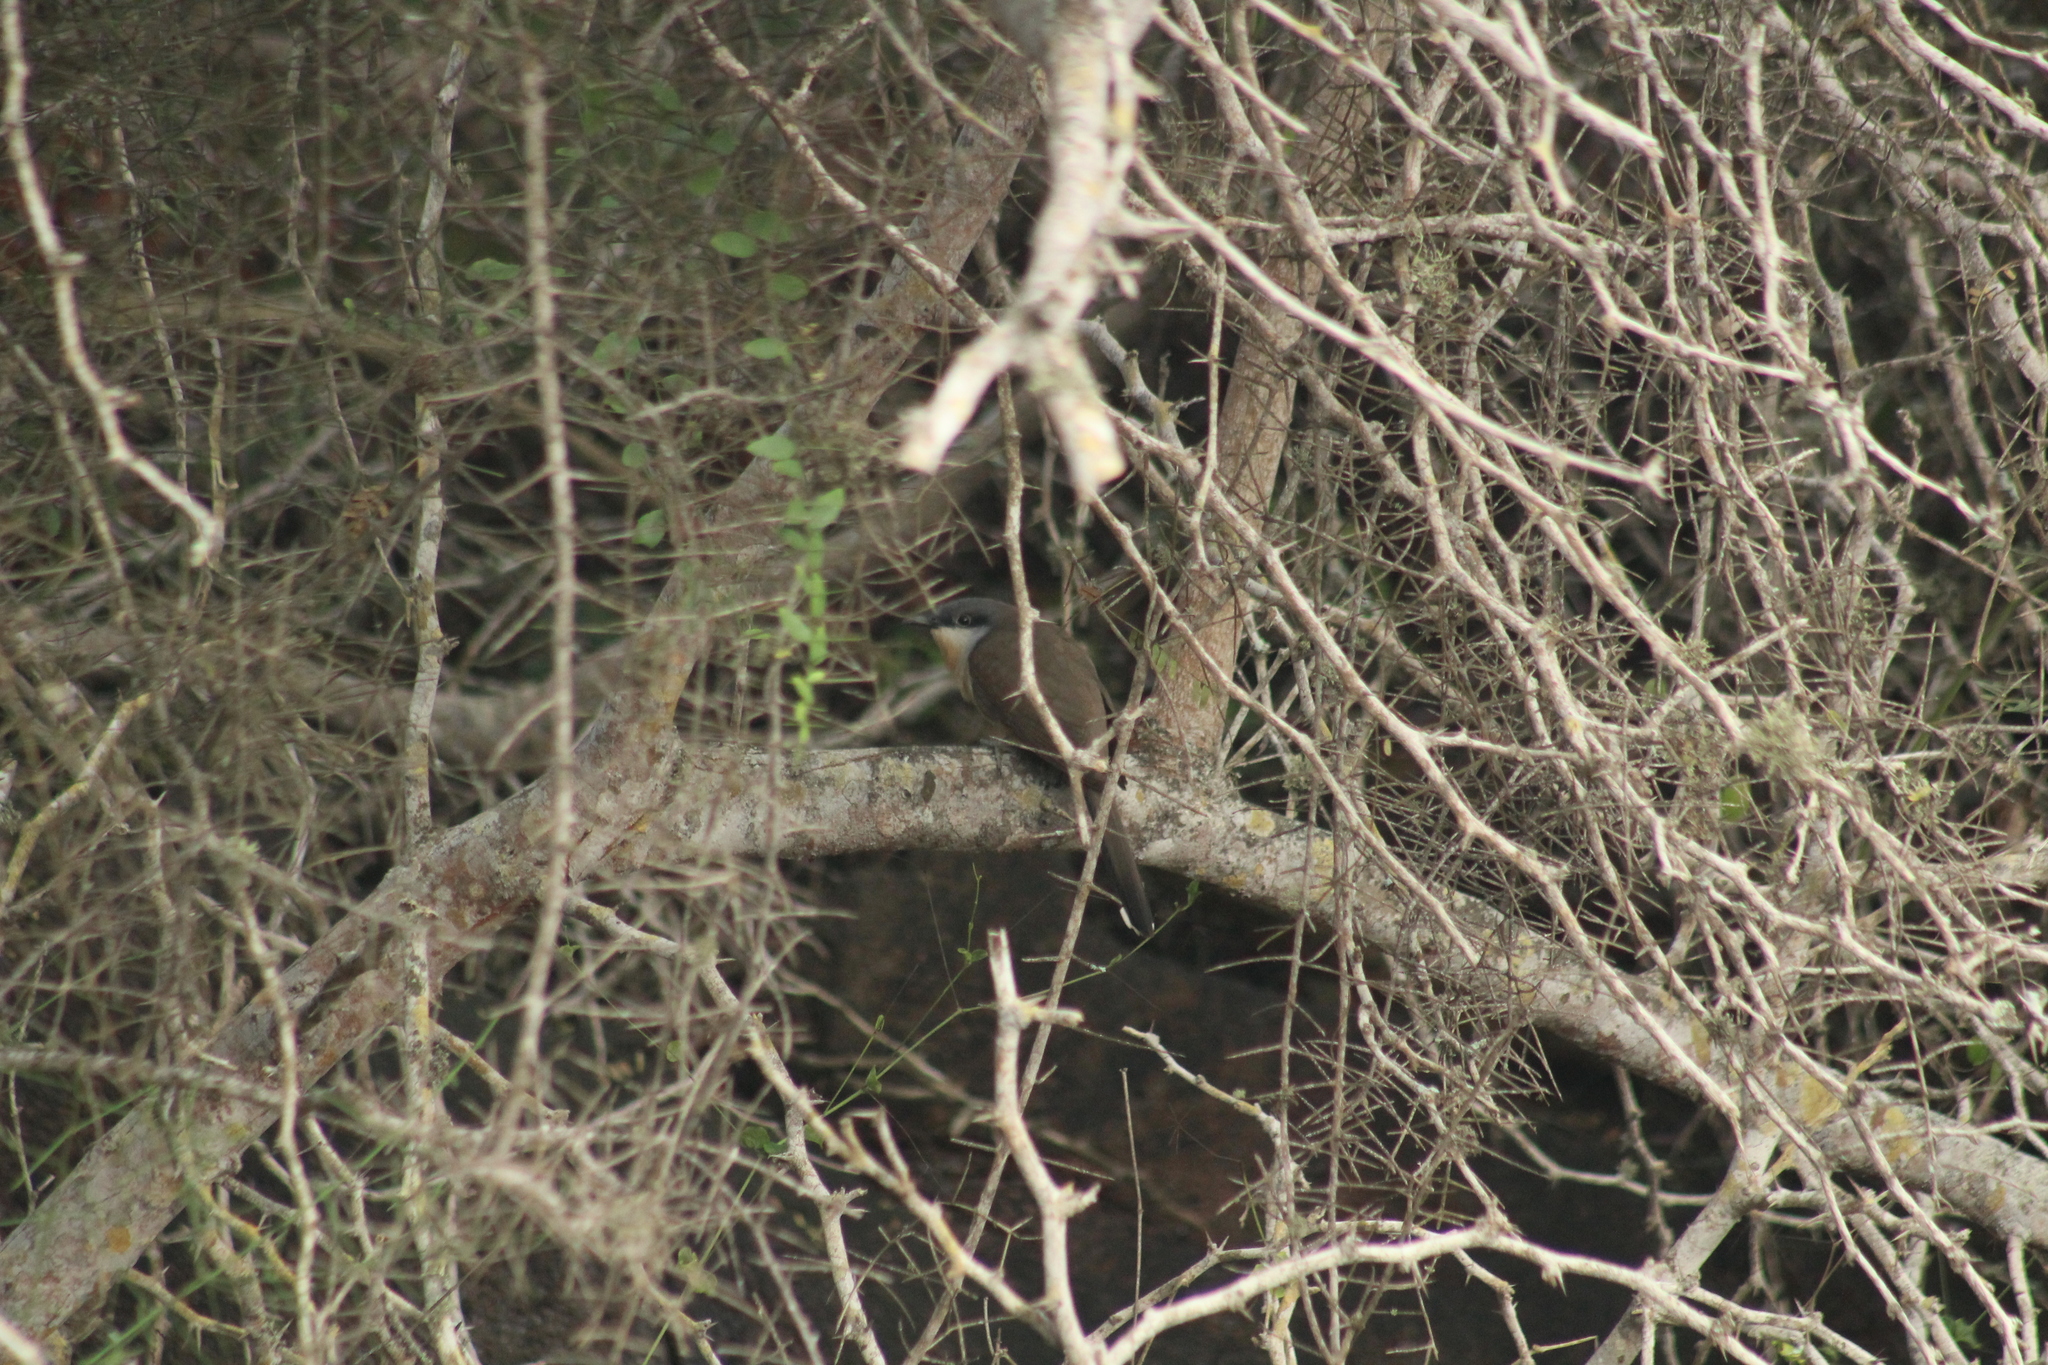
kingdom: Animalia
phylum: Chordata
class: Aves
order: Cuculiformes
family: Cuculidae
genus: Coccyzus
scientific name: Coccyzus melacoryphus
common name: Dark-billed cuckoo
